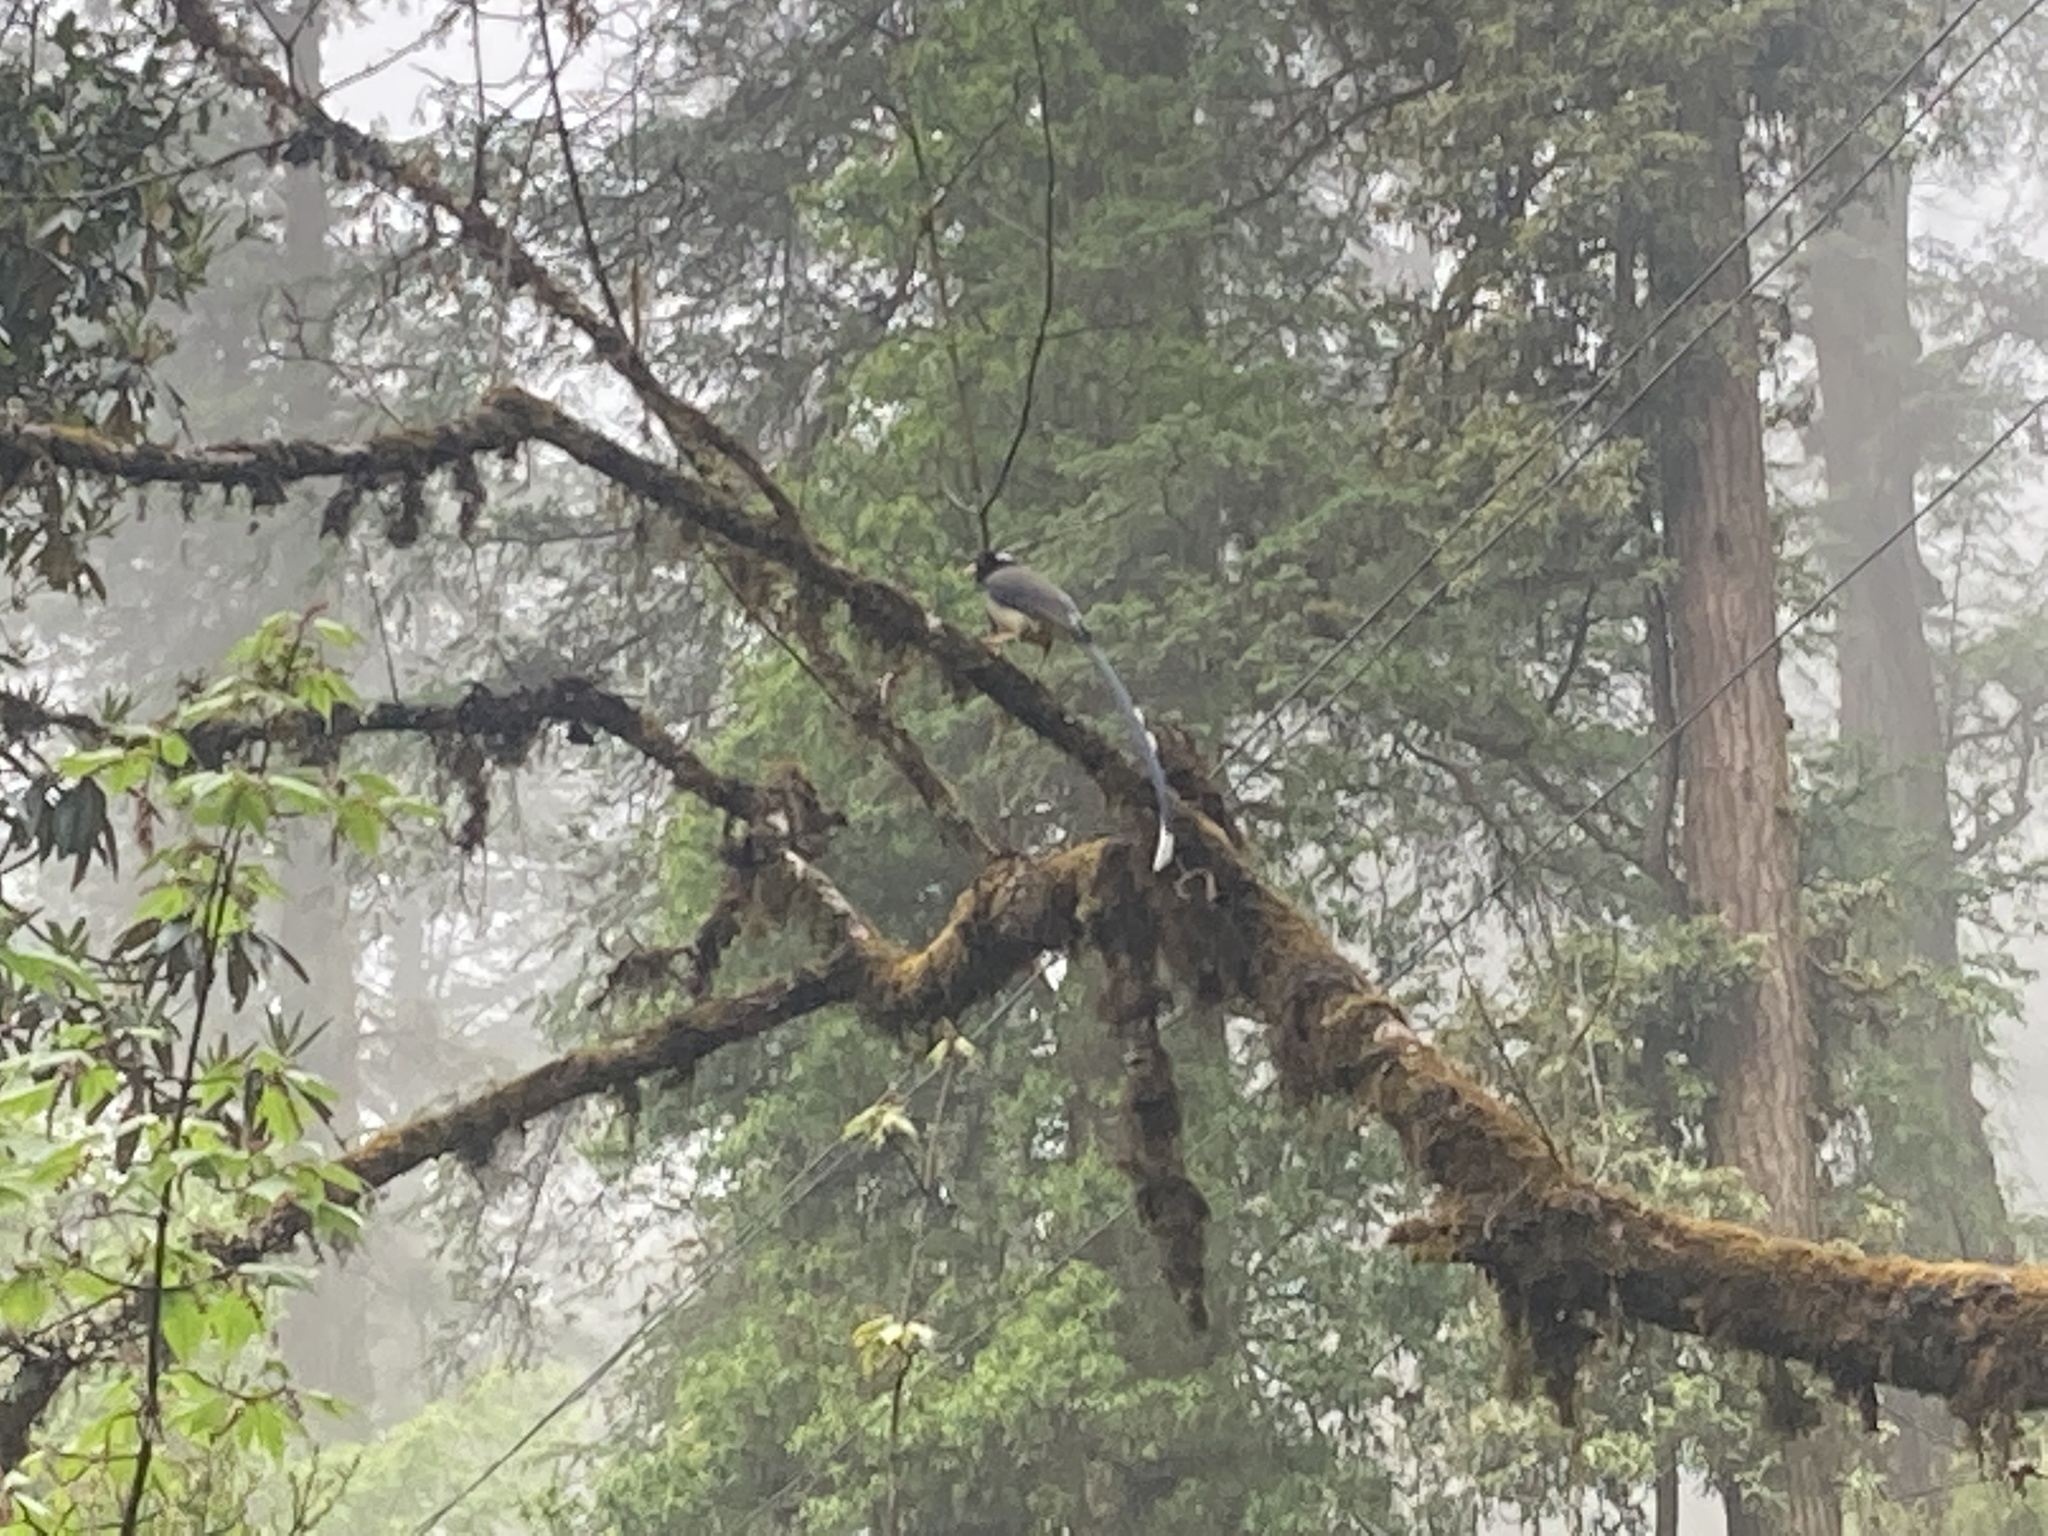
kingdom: Animalia
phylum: Chordata
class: Aves
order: Passeriformes
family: Corvidae
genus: Urocissa
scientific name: Urocissa flavirostris
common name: Yellow-billed blue magpie
